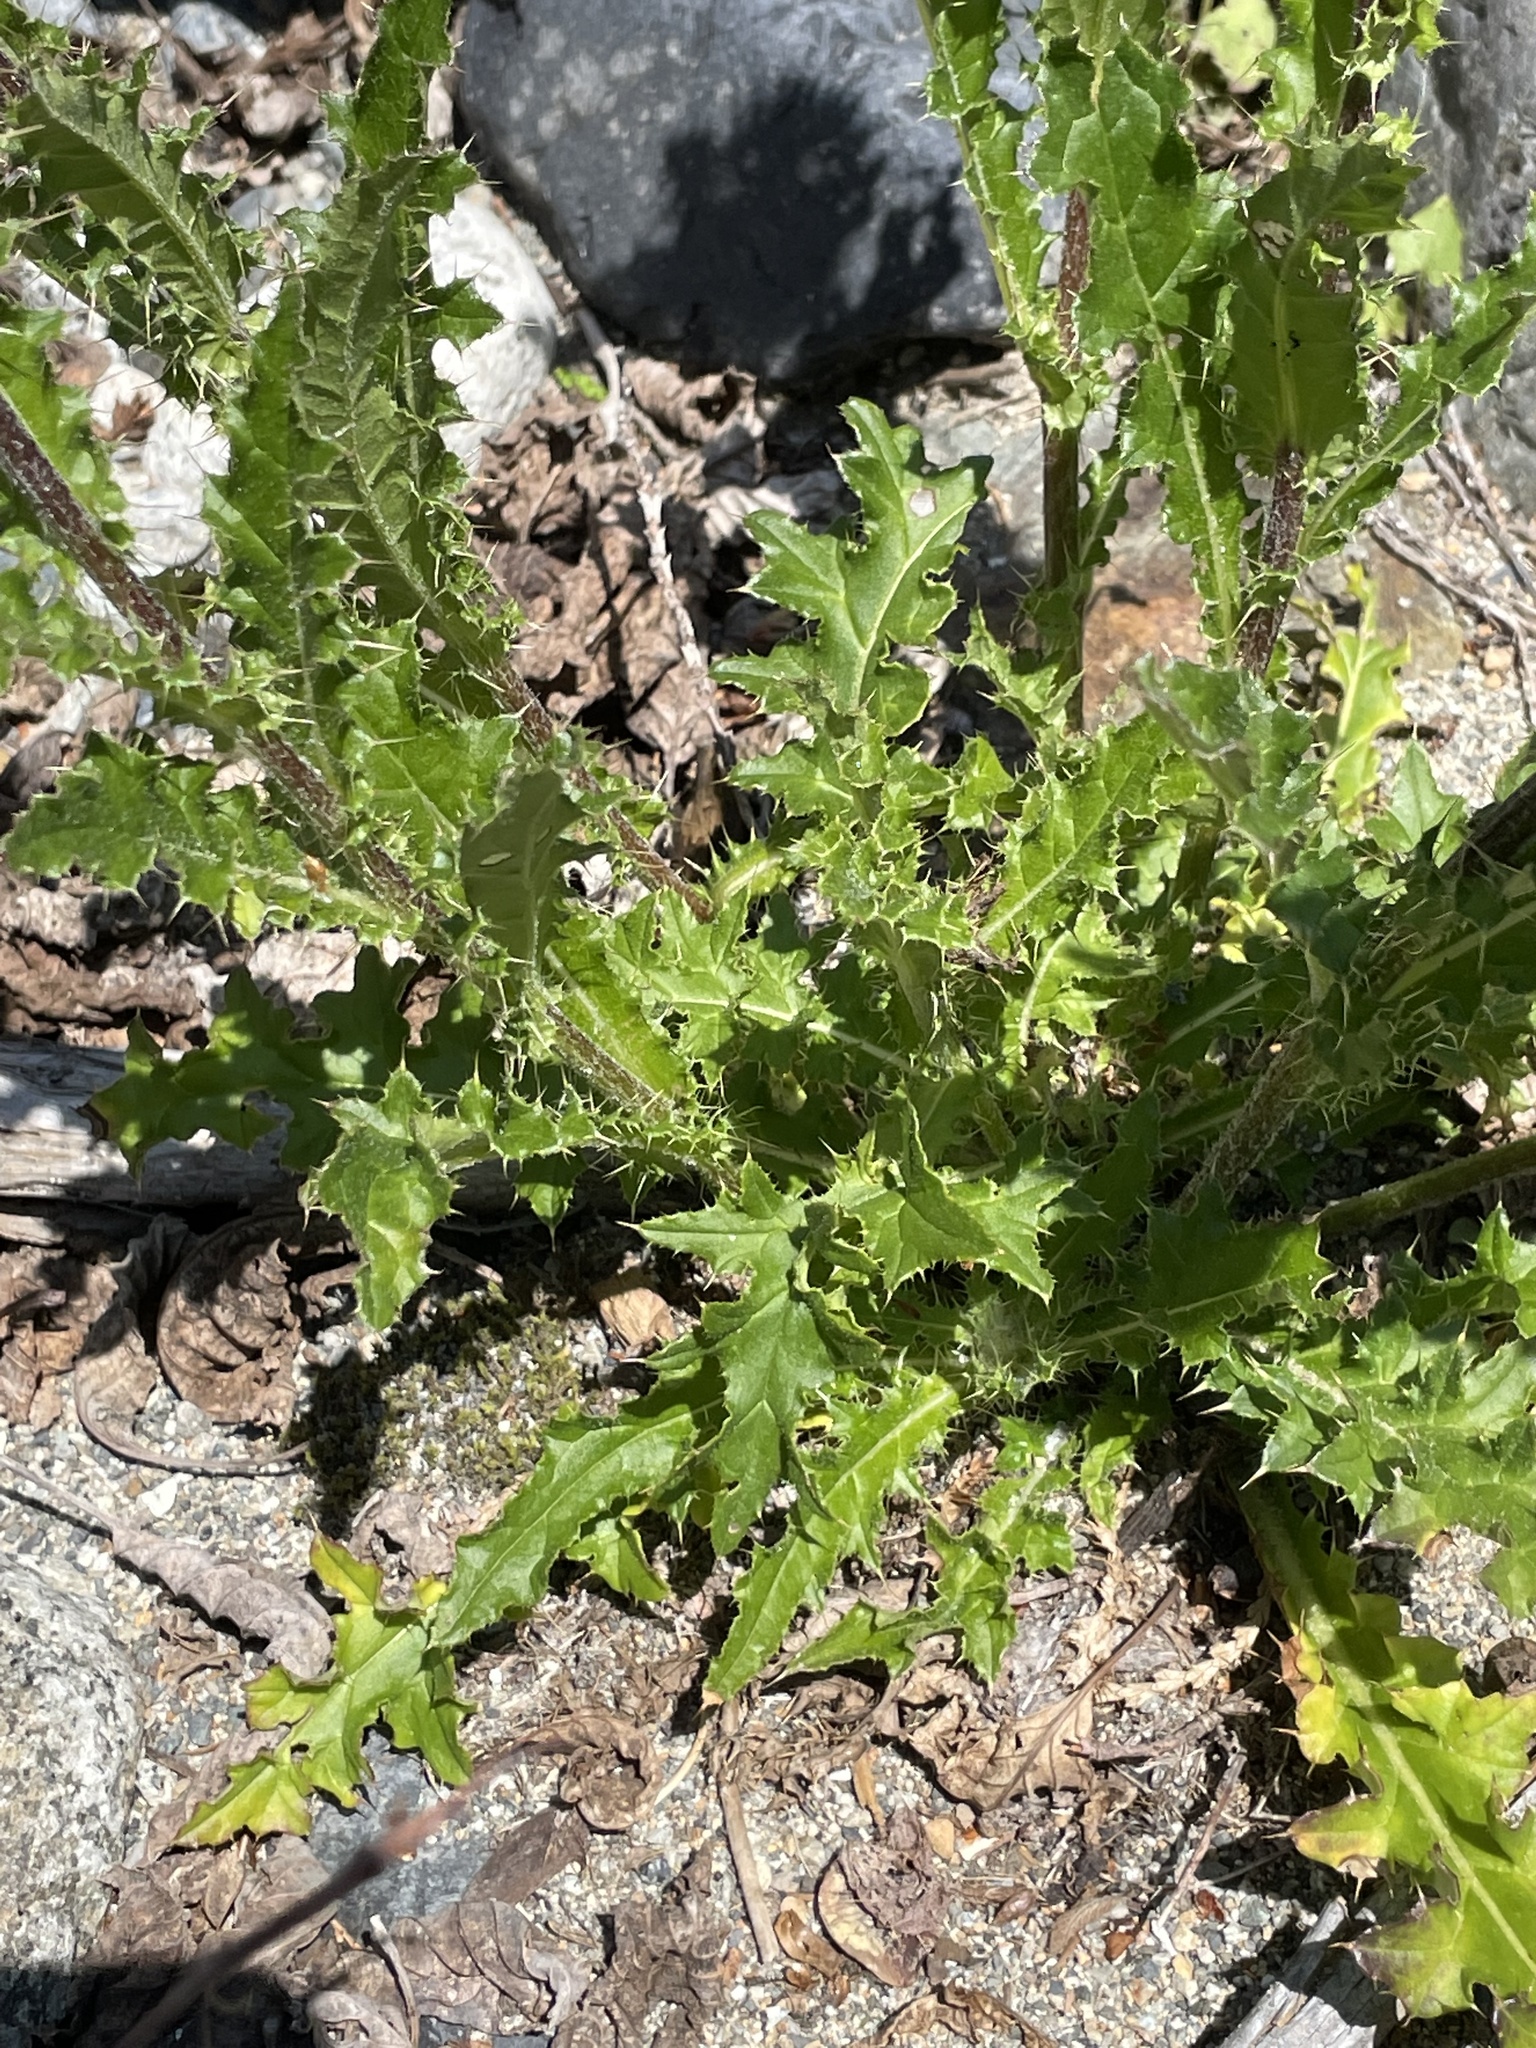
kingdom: Plantae
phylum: Tracheophyta
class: Magnoliopsida
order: Asterales
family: Asteraceae
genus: Cirsium
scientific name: Cirsium edule
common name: Indian thistle
